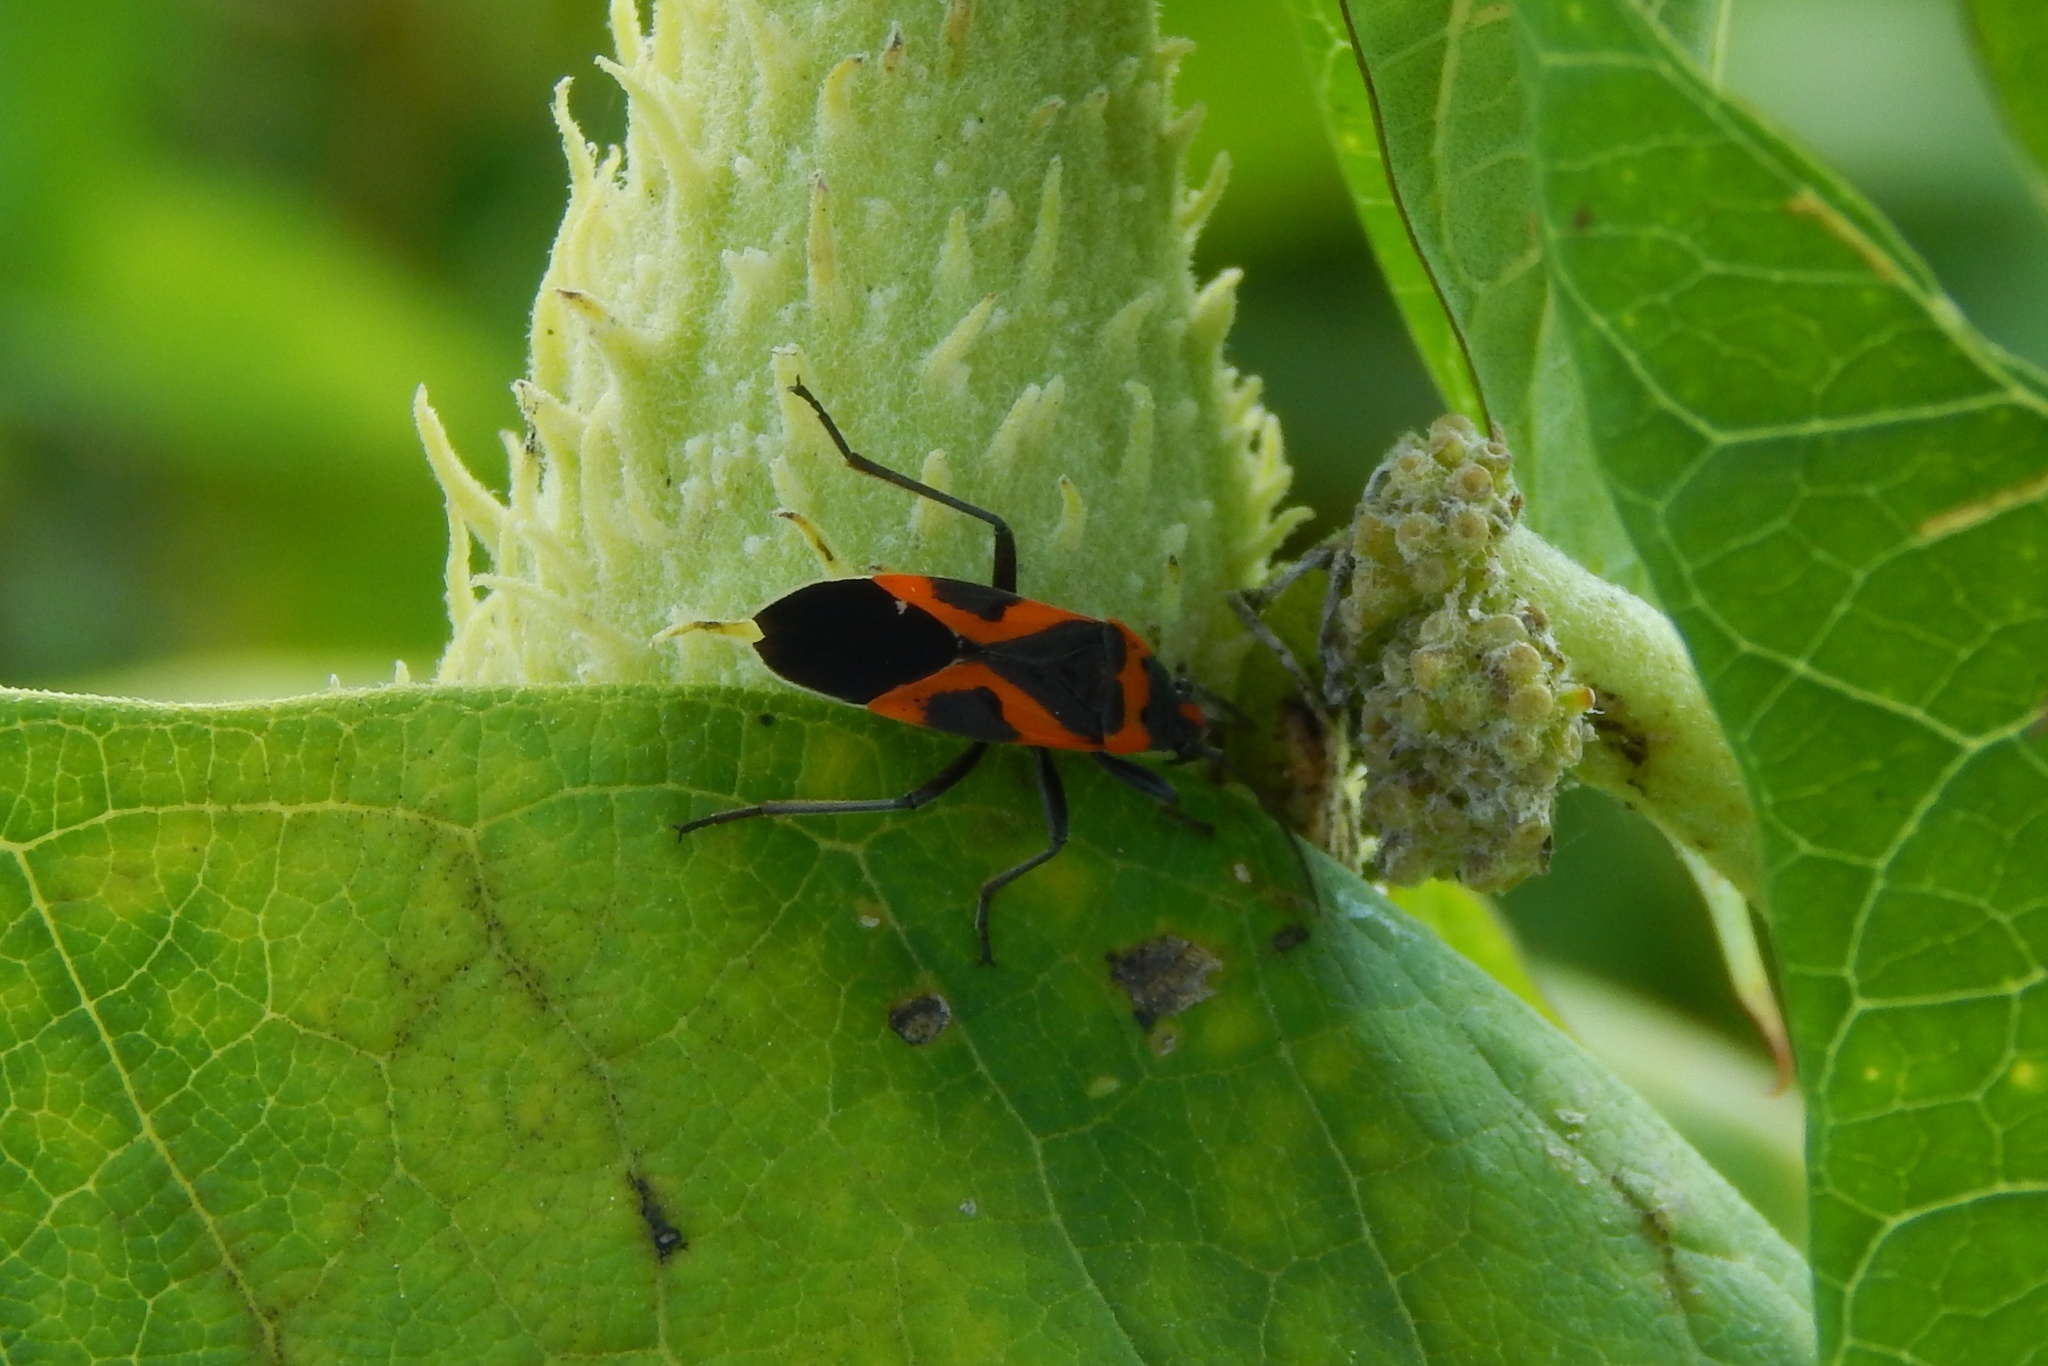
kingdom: Animalia
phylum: Arthropoda
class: Insecta
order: Hemiptera
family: Lygaeidae
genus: Lygaeus
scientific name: Lygaeus kalmii
